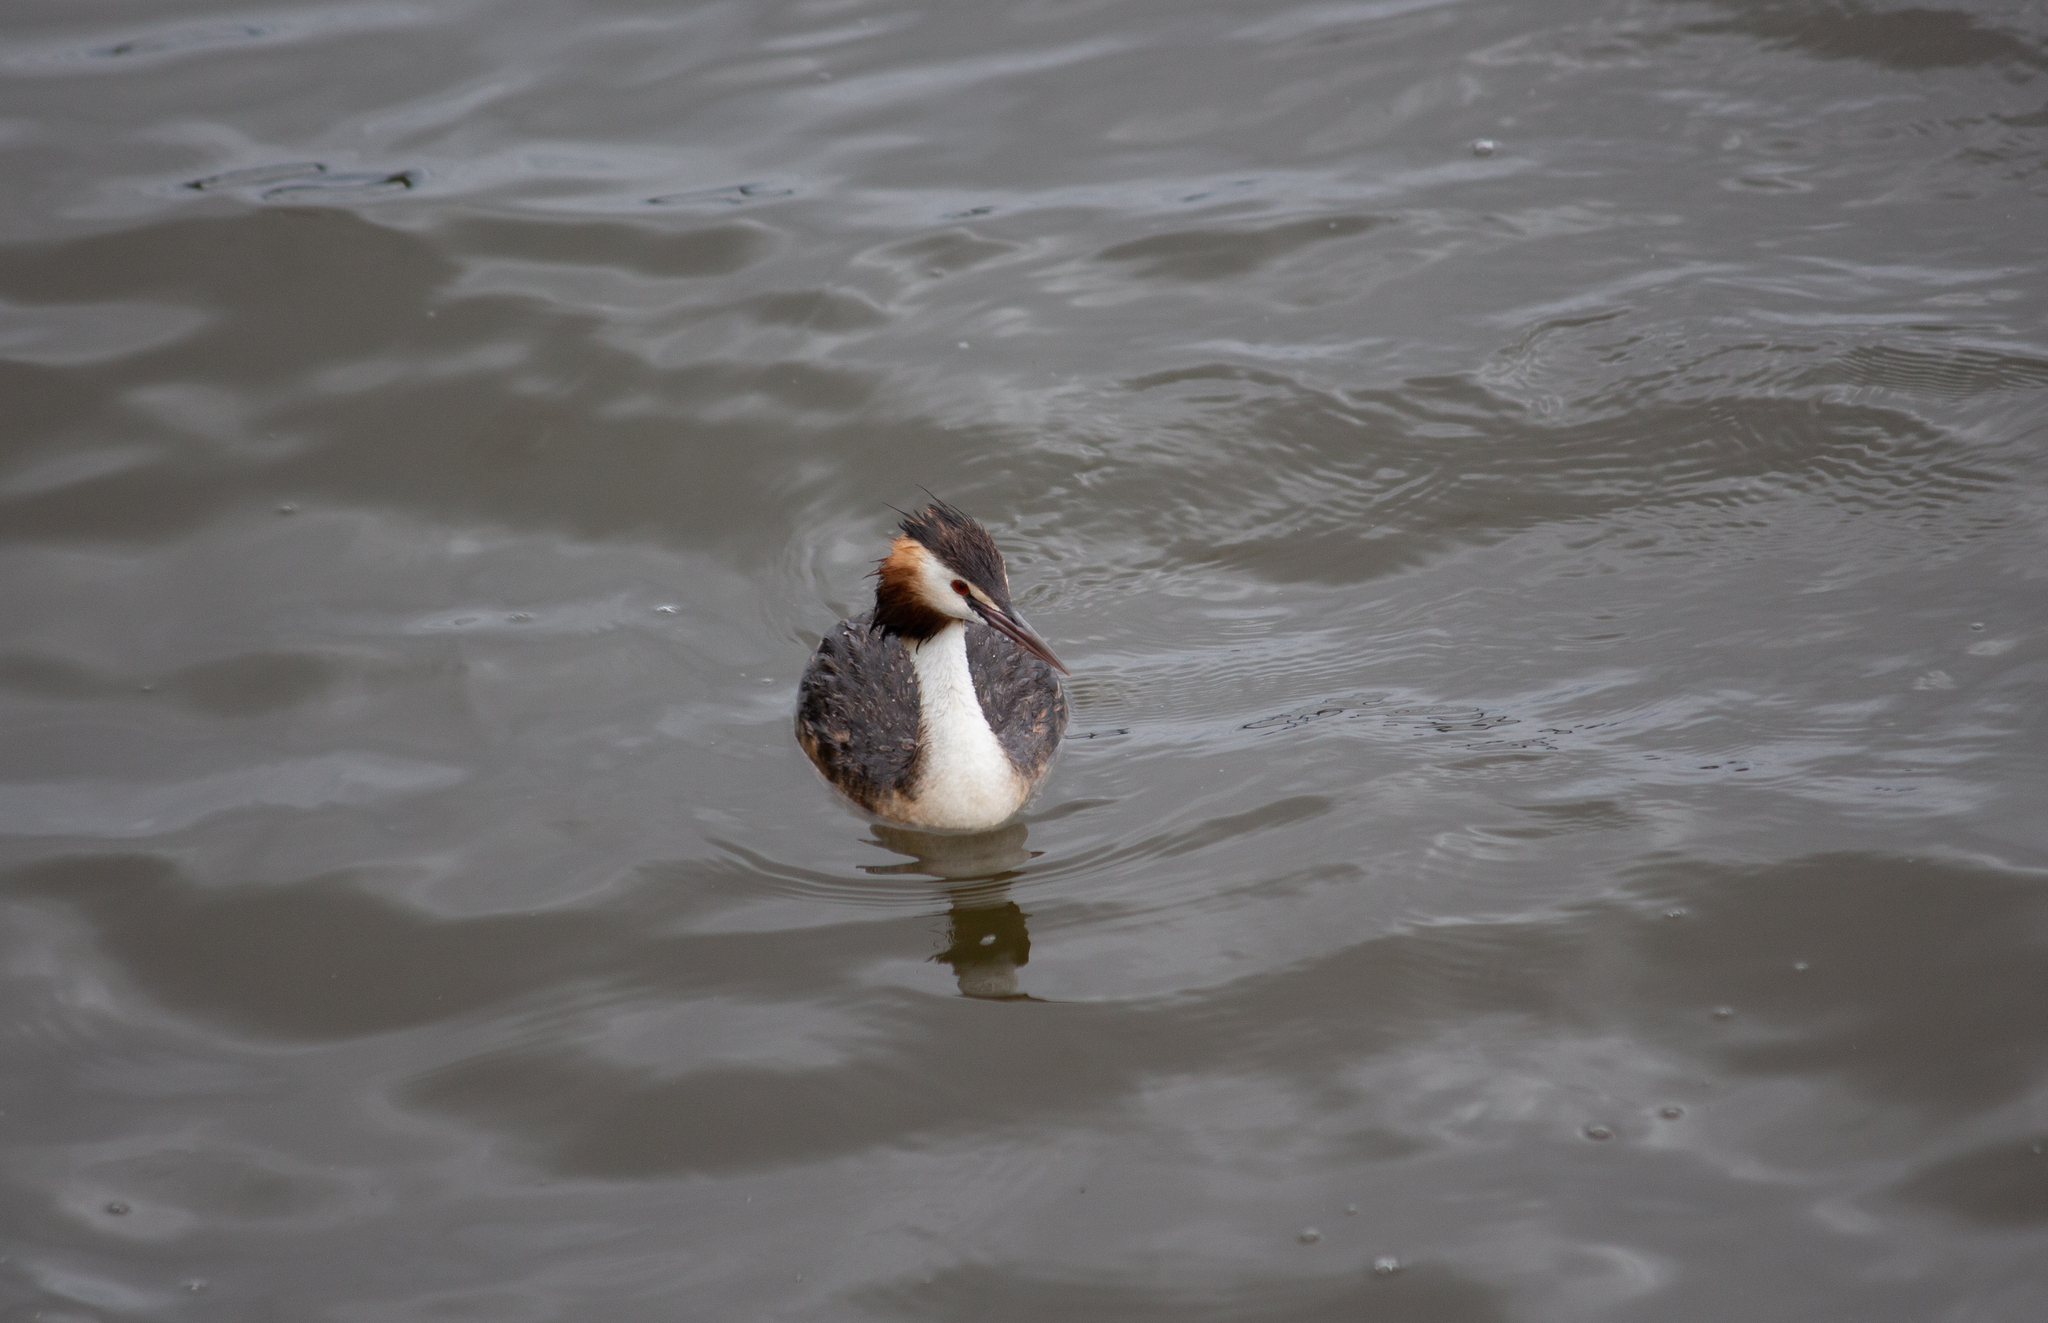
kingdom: Animalia
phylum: Chordata
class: Aves
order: Podicipediformes
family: Podicipedidae
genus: Podiceps
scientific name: Podiceps cristatus
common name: Great crested grebe
